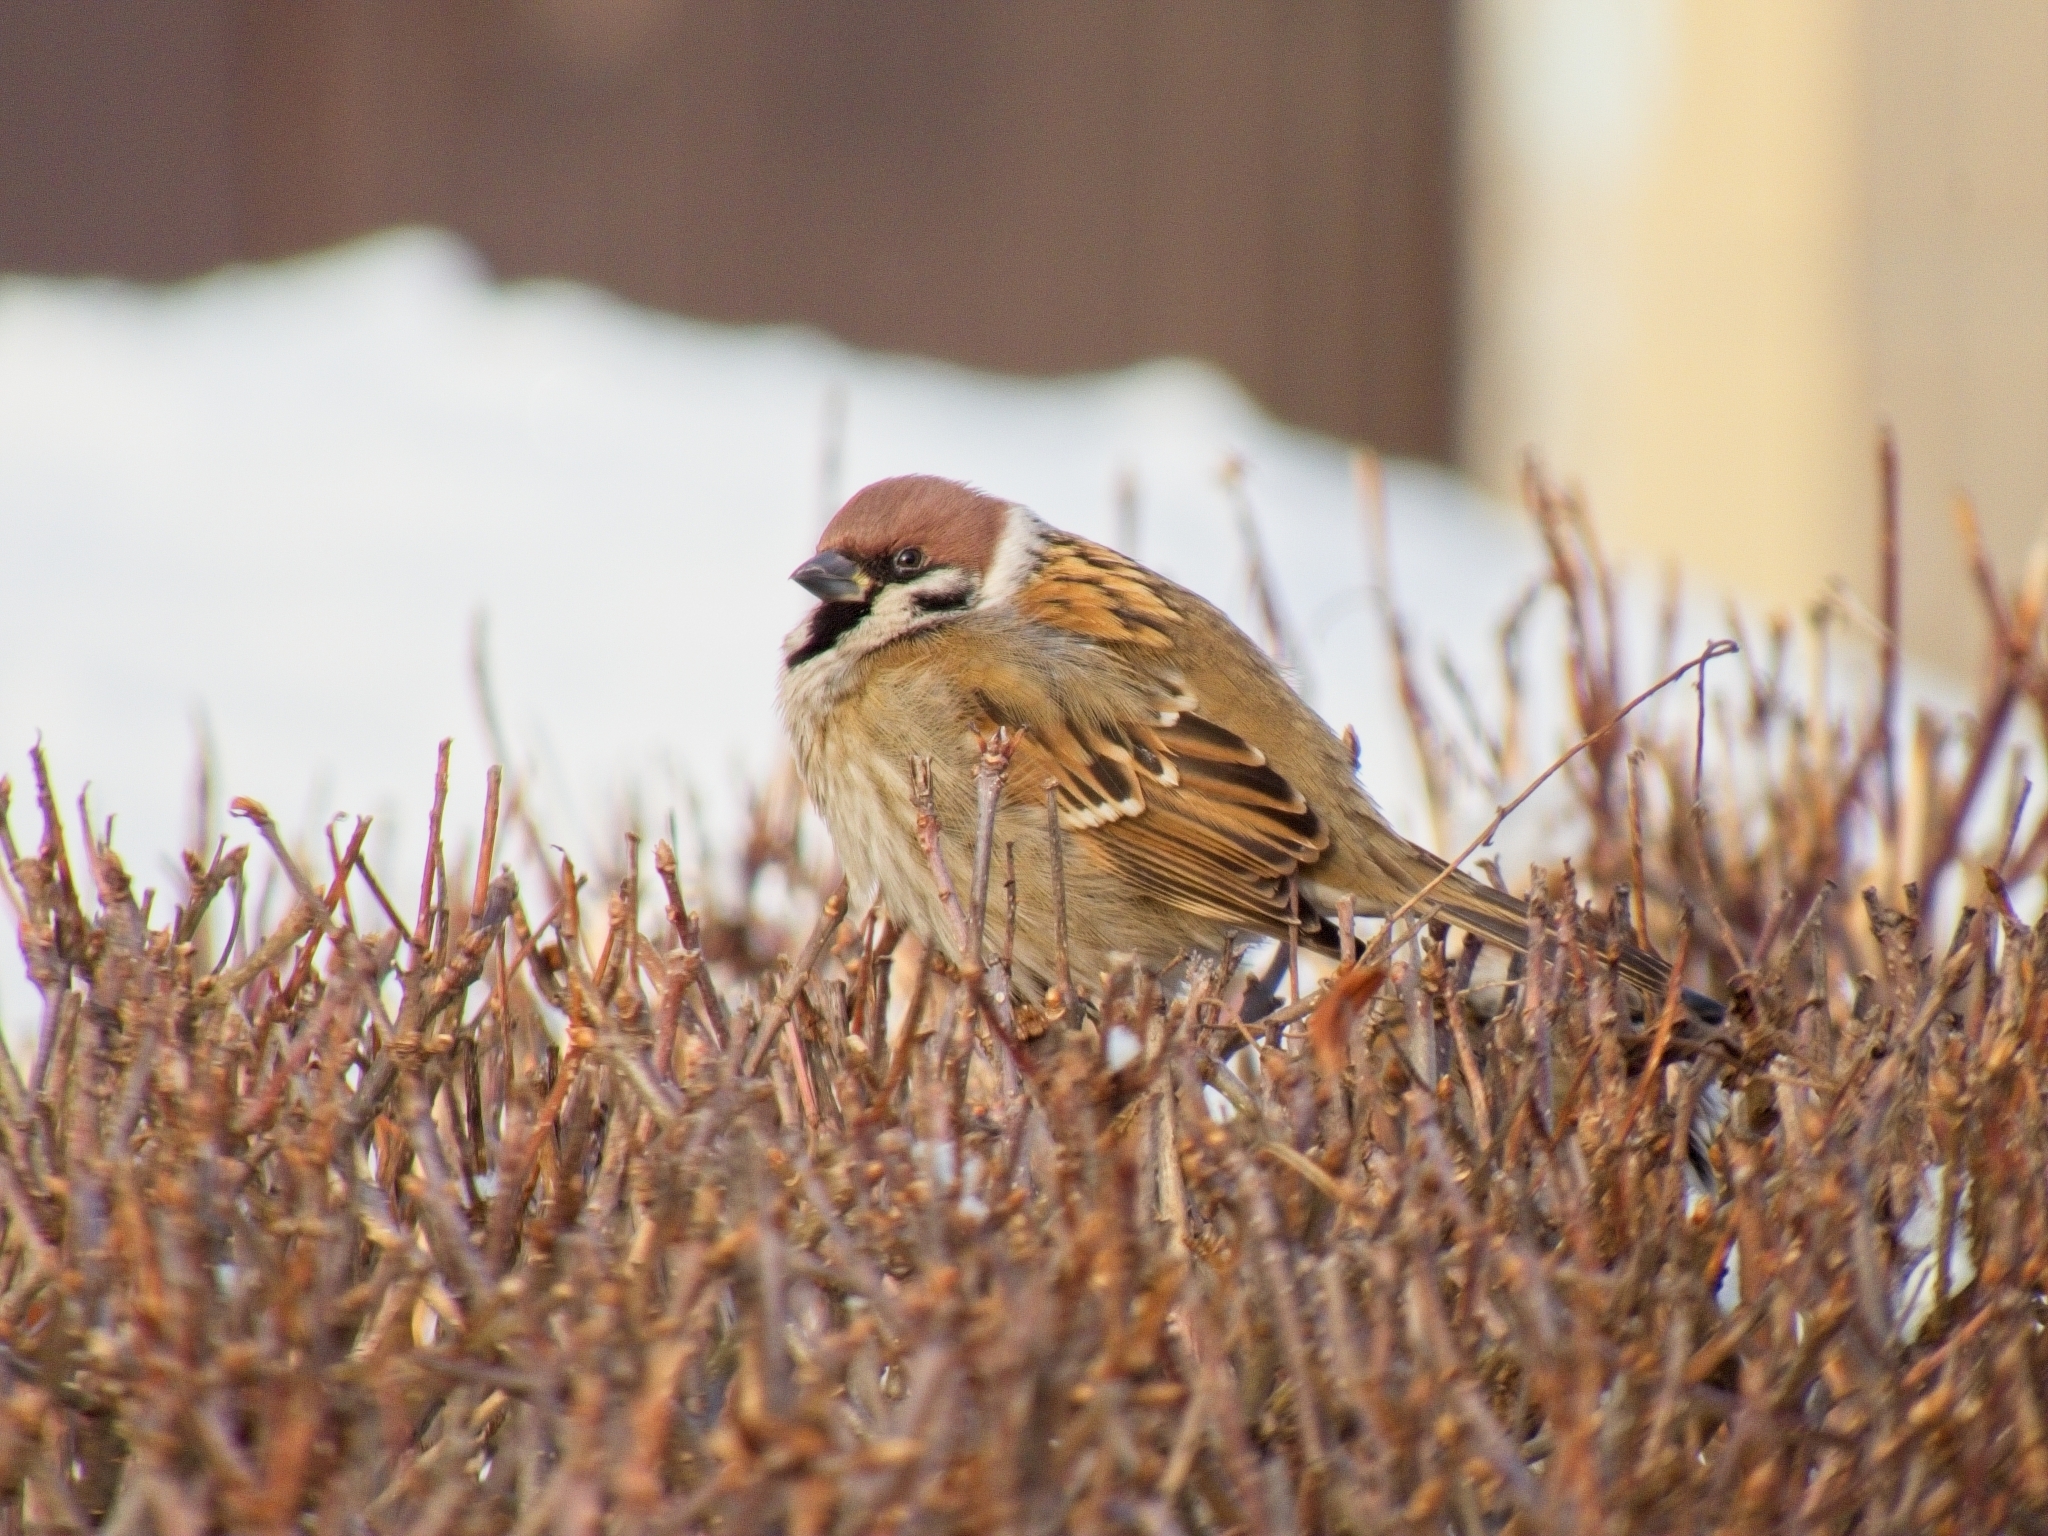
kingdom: Animalia
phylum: Chordata
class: Aves
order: Passeriformes
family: Passeridae
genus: Passer
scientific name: Passer montanus
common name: Eurasian tree sparrow
